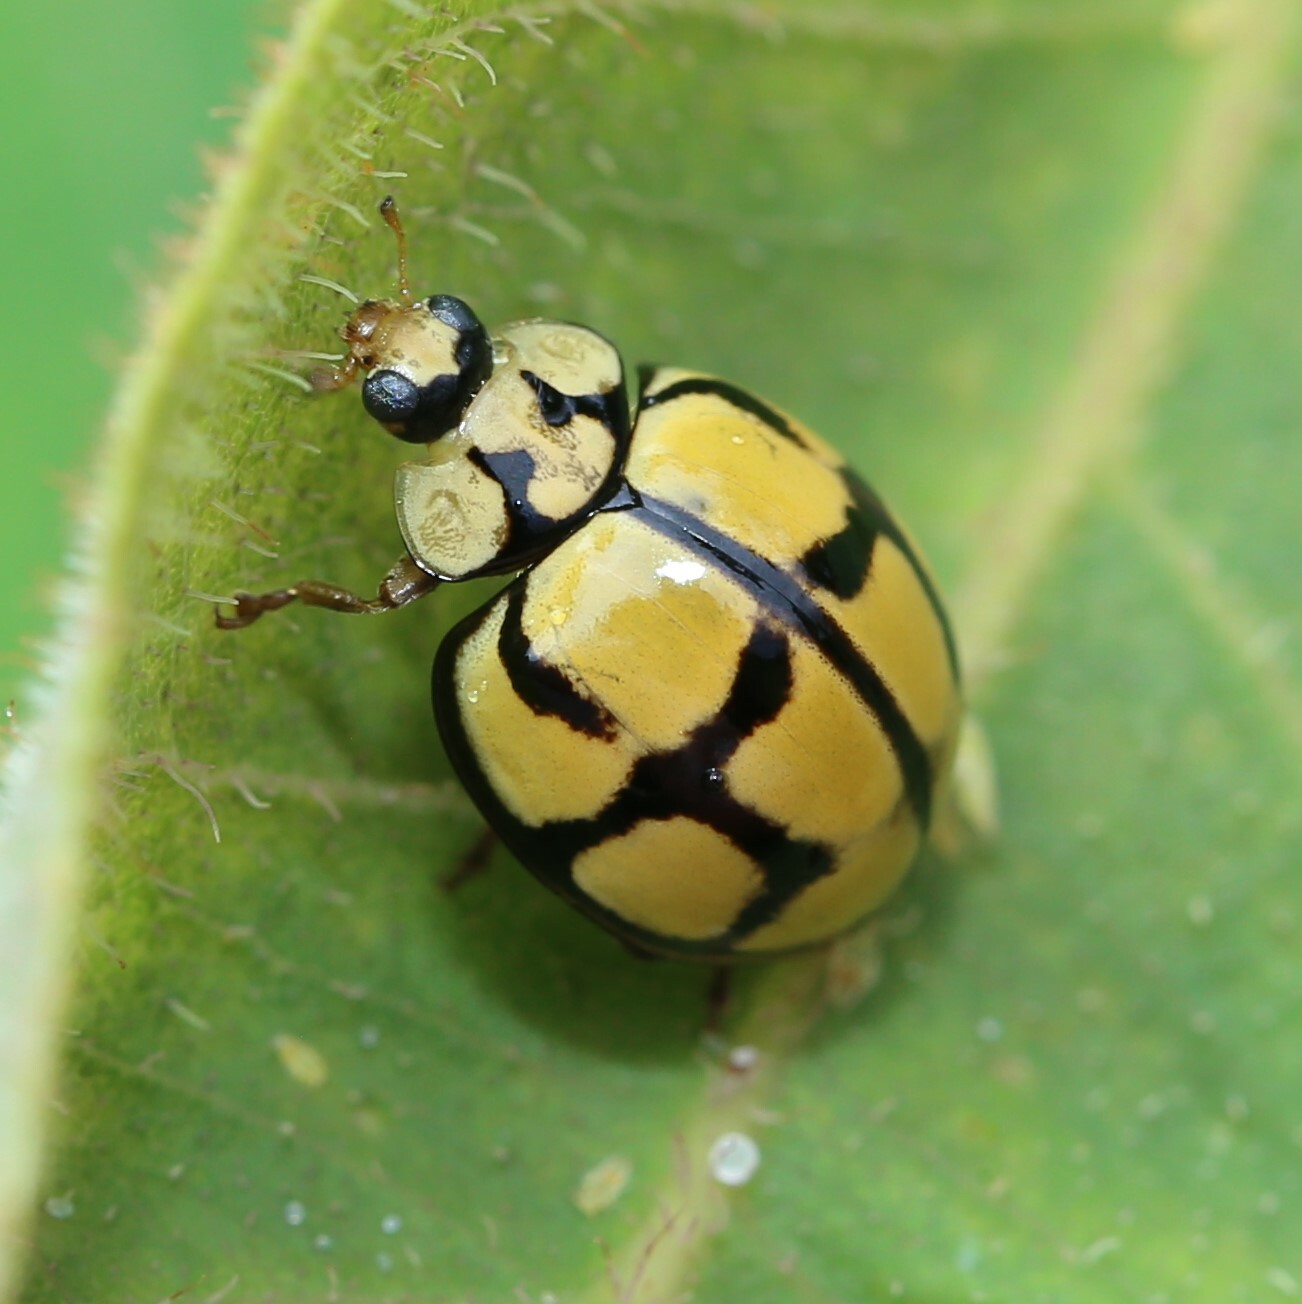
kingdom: Animalia
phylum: Arthropoda
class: Insecta
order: Coleoptera
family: Coccinellidae
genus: Harmonia
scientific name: Harmonia
